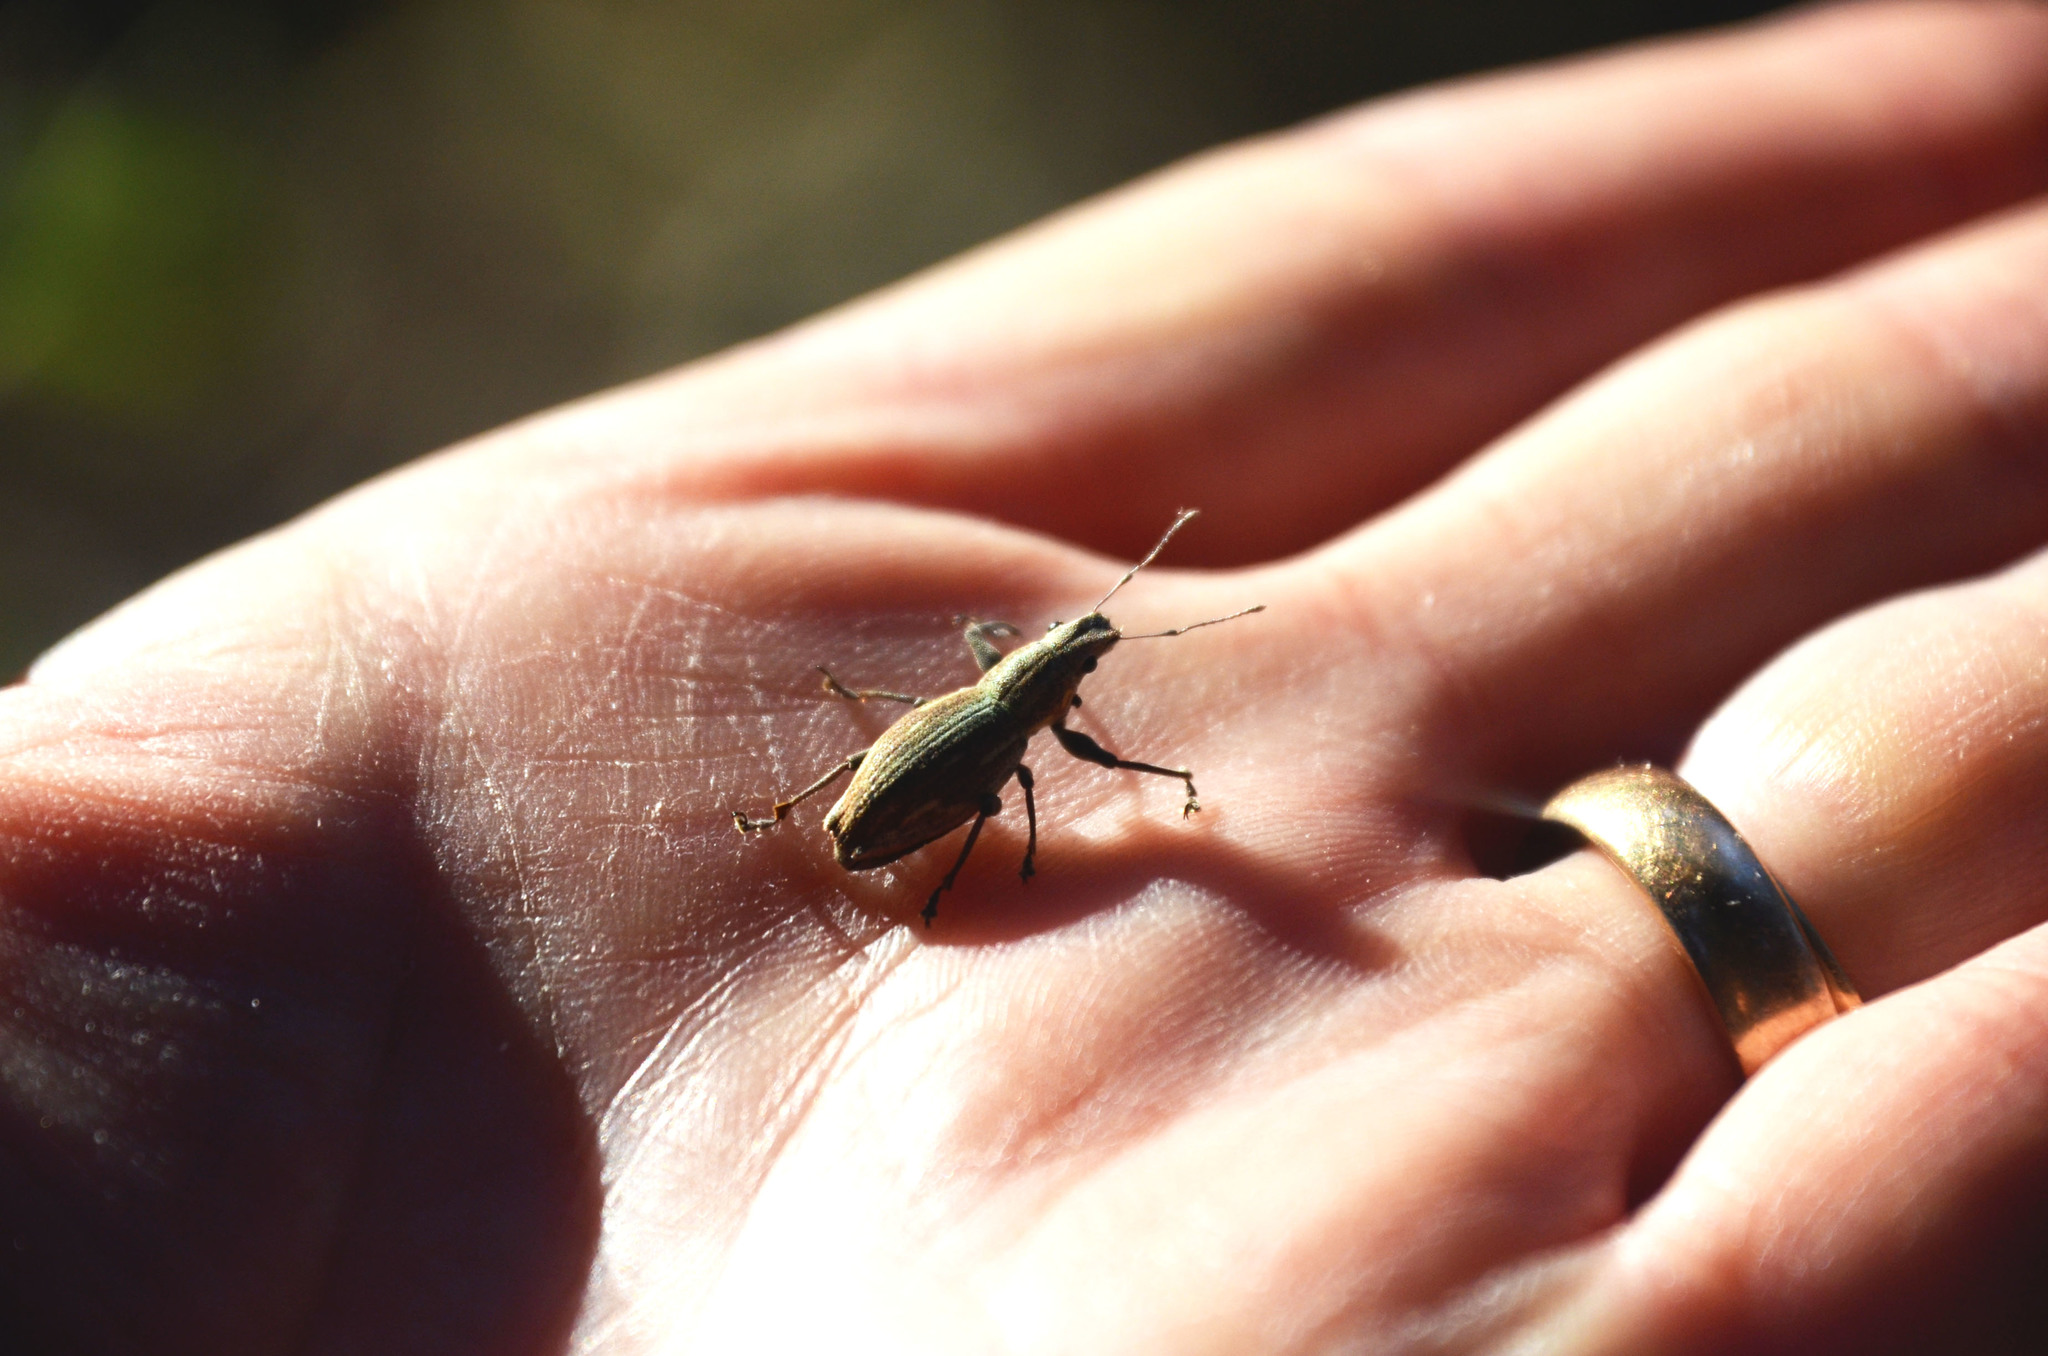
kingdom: Animalia
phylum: Arthropoda
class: Insecta
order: Coleoptera
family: Curculionidae
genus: Naupactus
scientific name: Naupactus xanthographus
